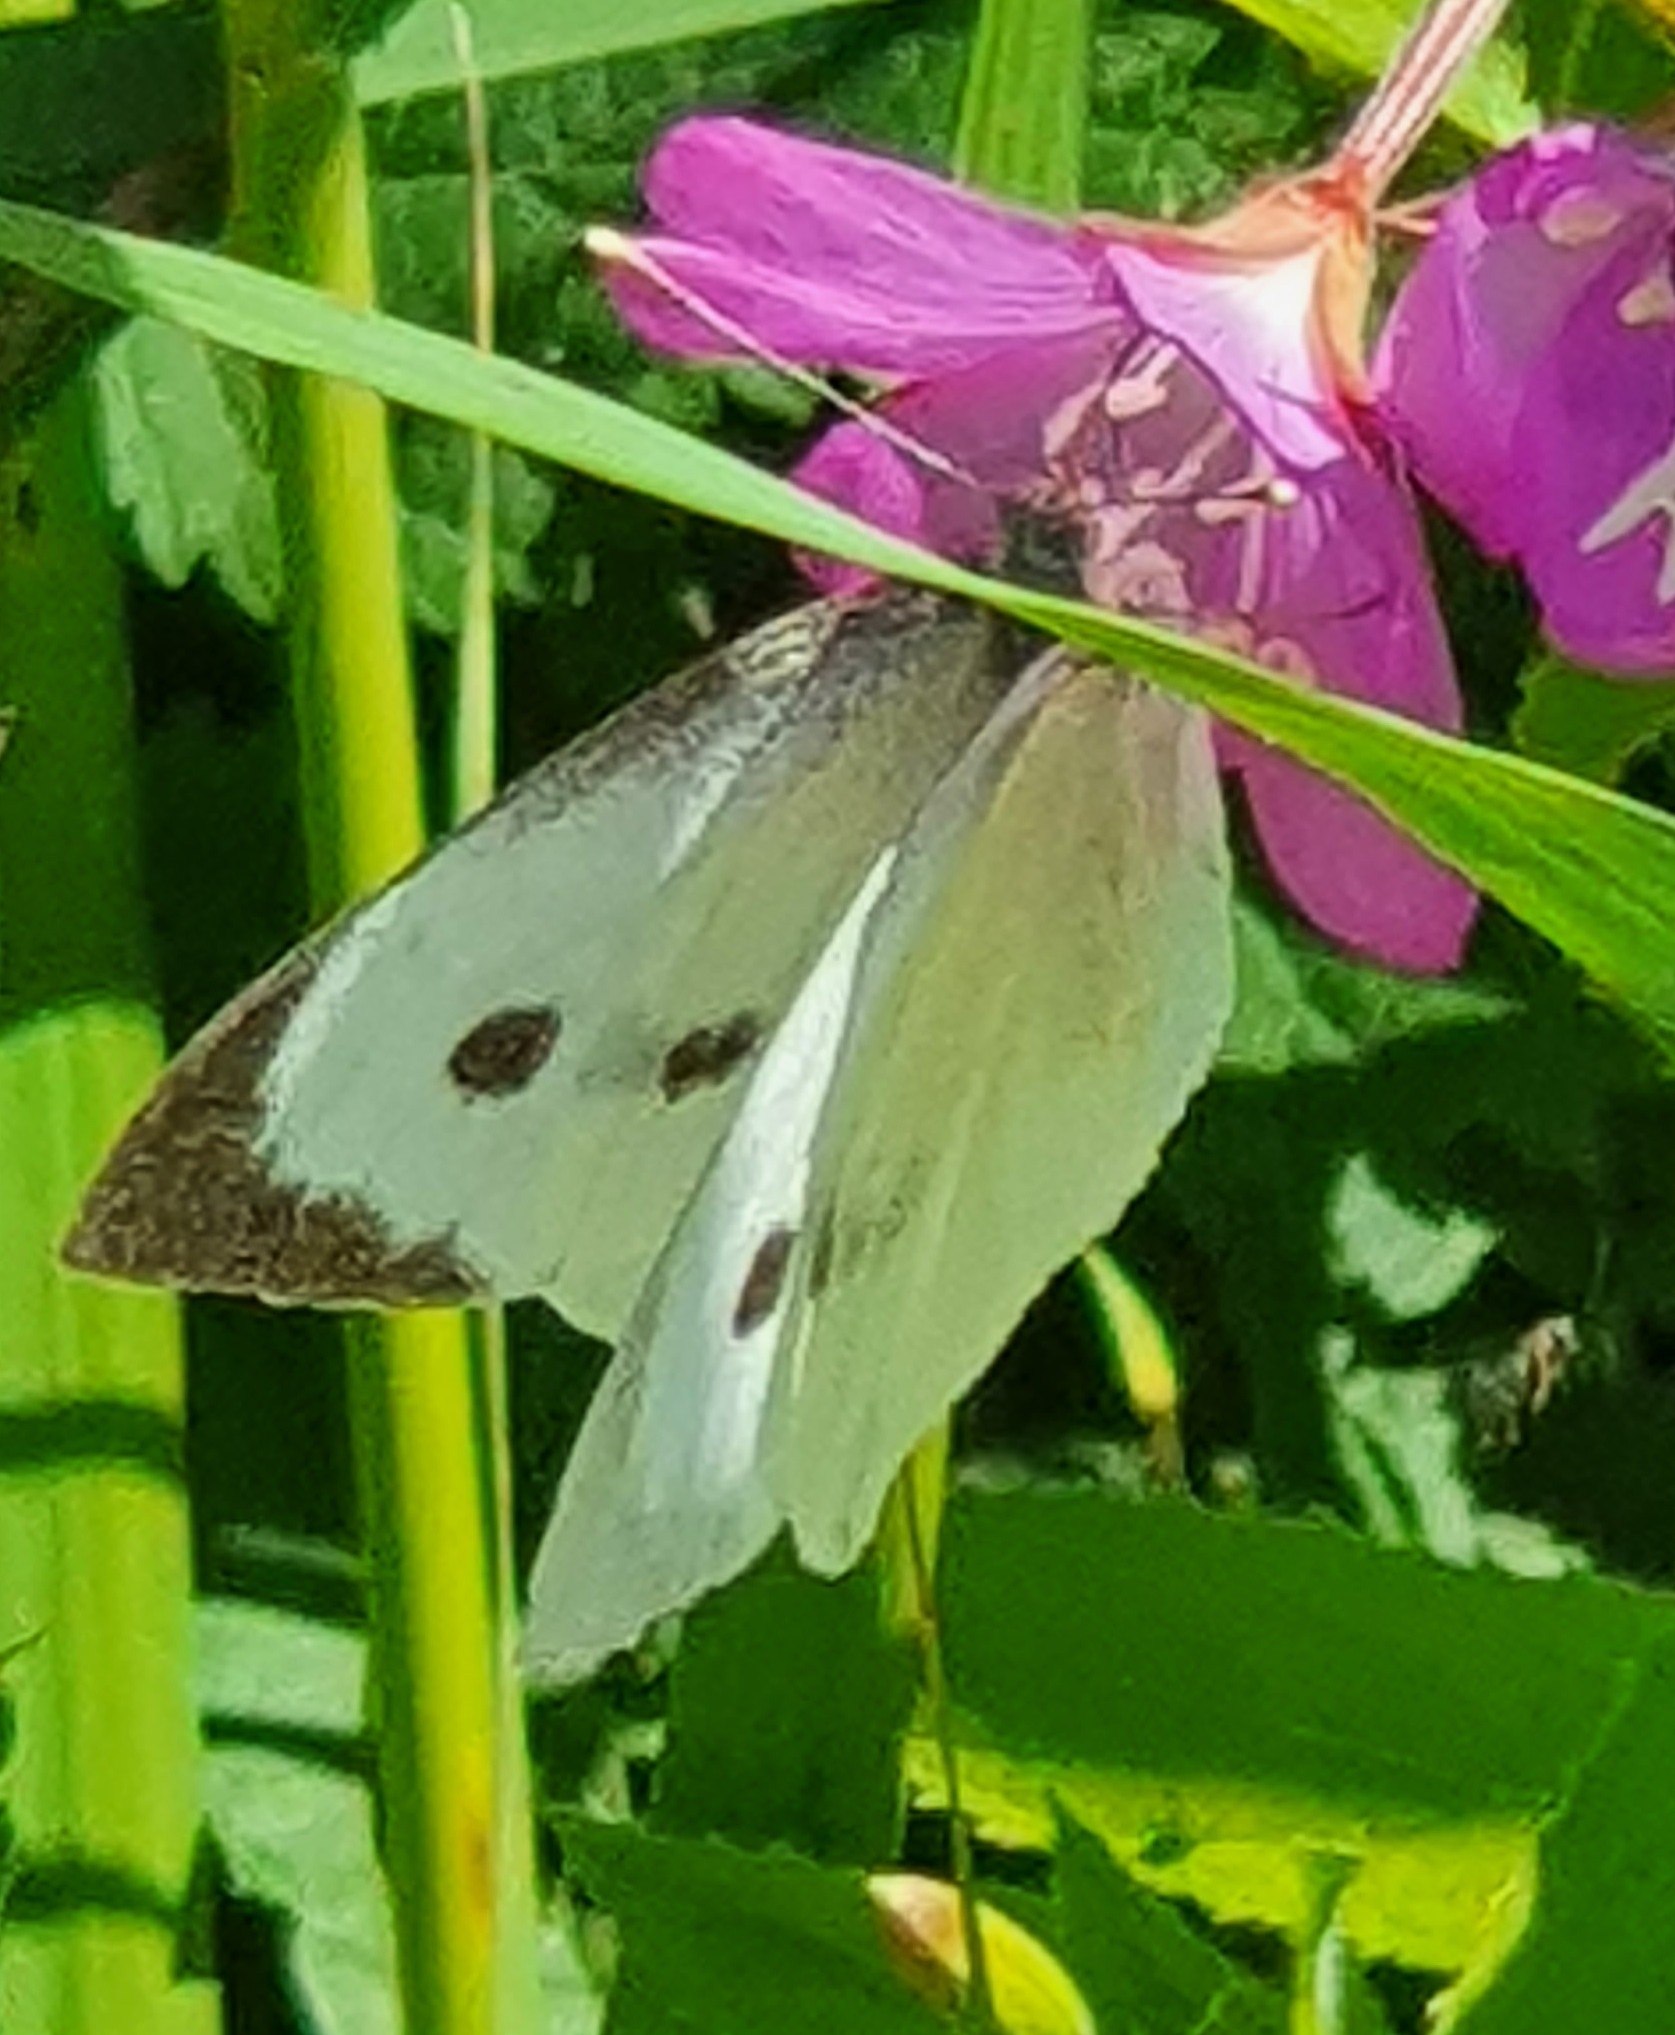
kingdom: Animalia
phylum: Arthropoda
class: Insecta
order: Lepidoptera
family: Pieridae
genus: Pieris
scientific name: Pieris brassicae
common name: Large white
